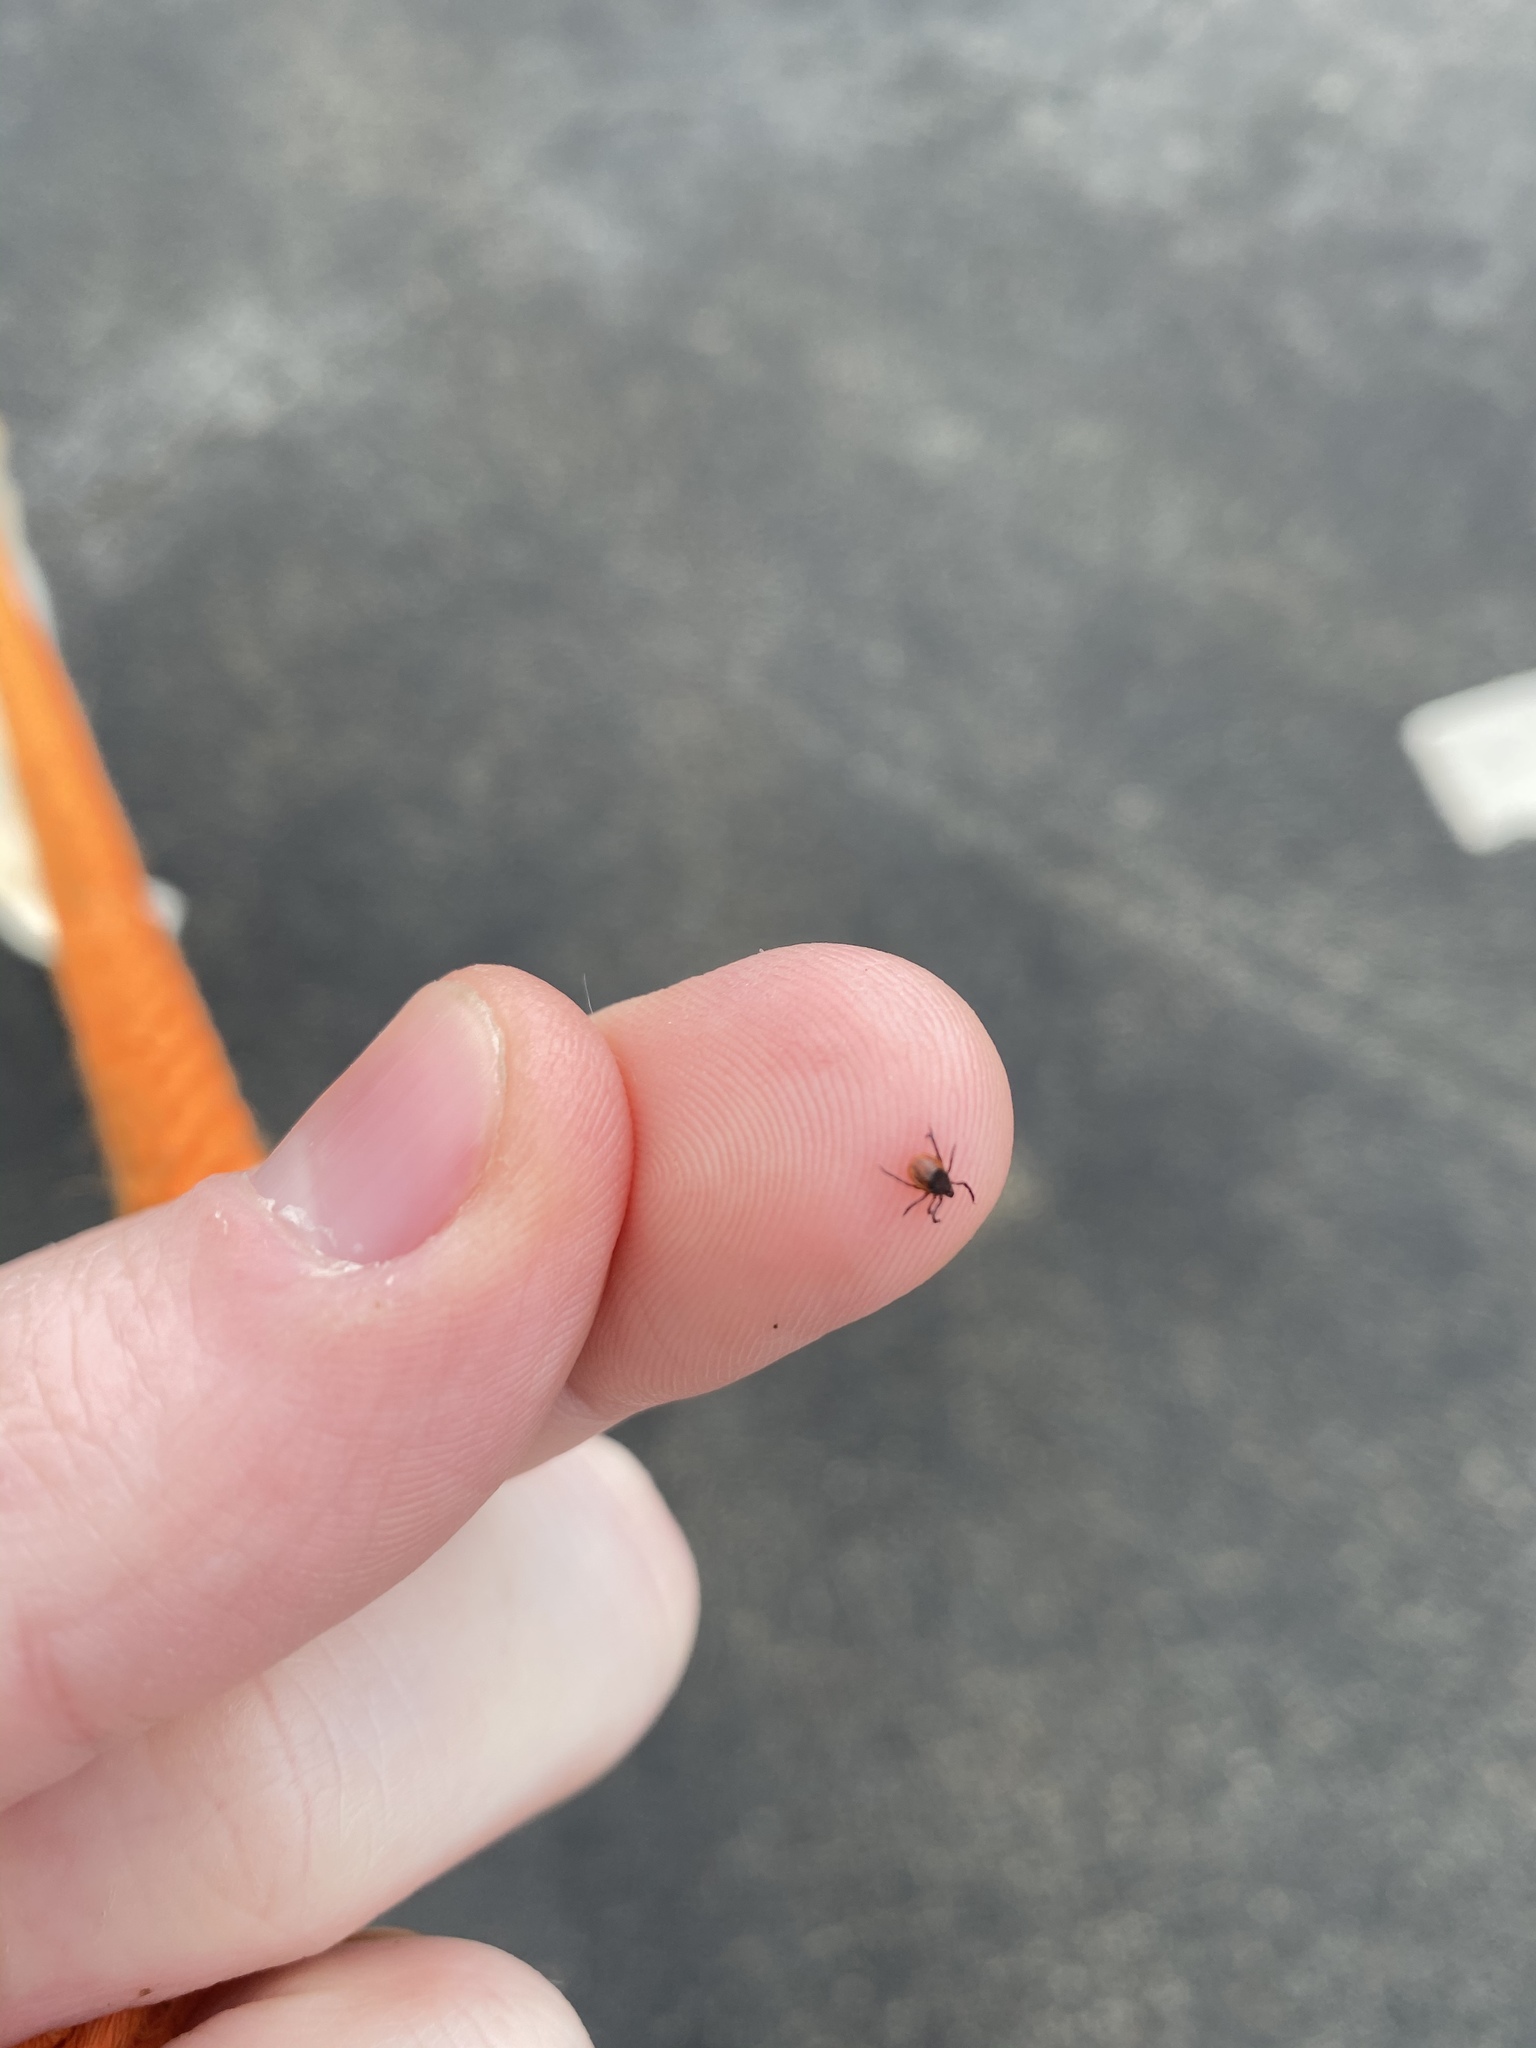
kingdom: Animalia
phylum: Arthropoda
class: Arachnida
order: Ixodida
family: Ixodidae
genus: Ixodes
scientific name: Ixodes scapularis
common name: Black legged tick
